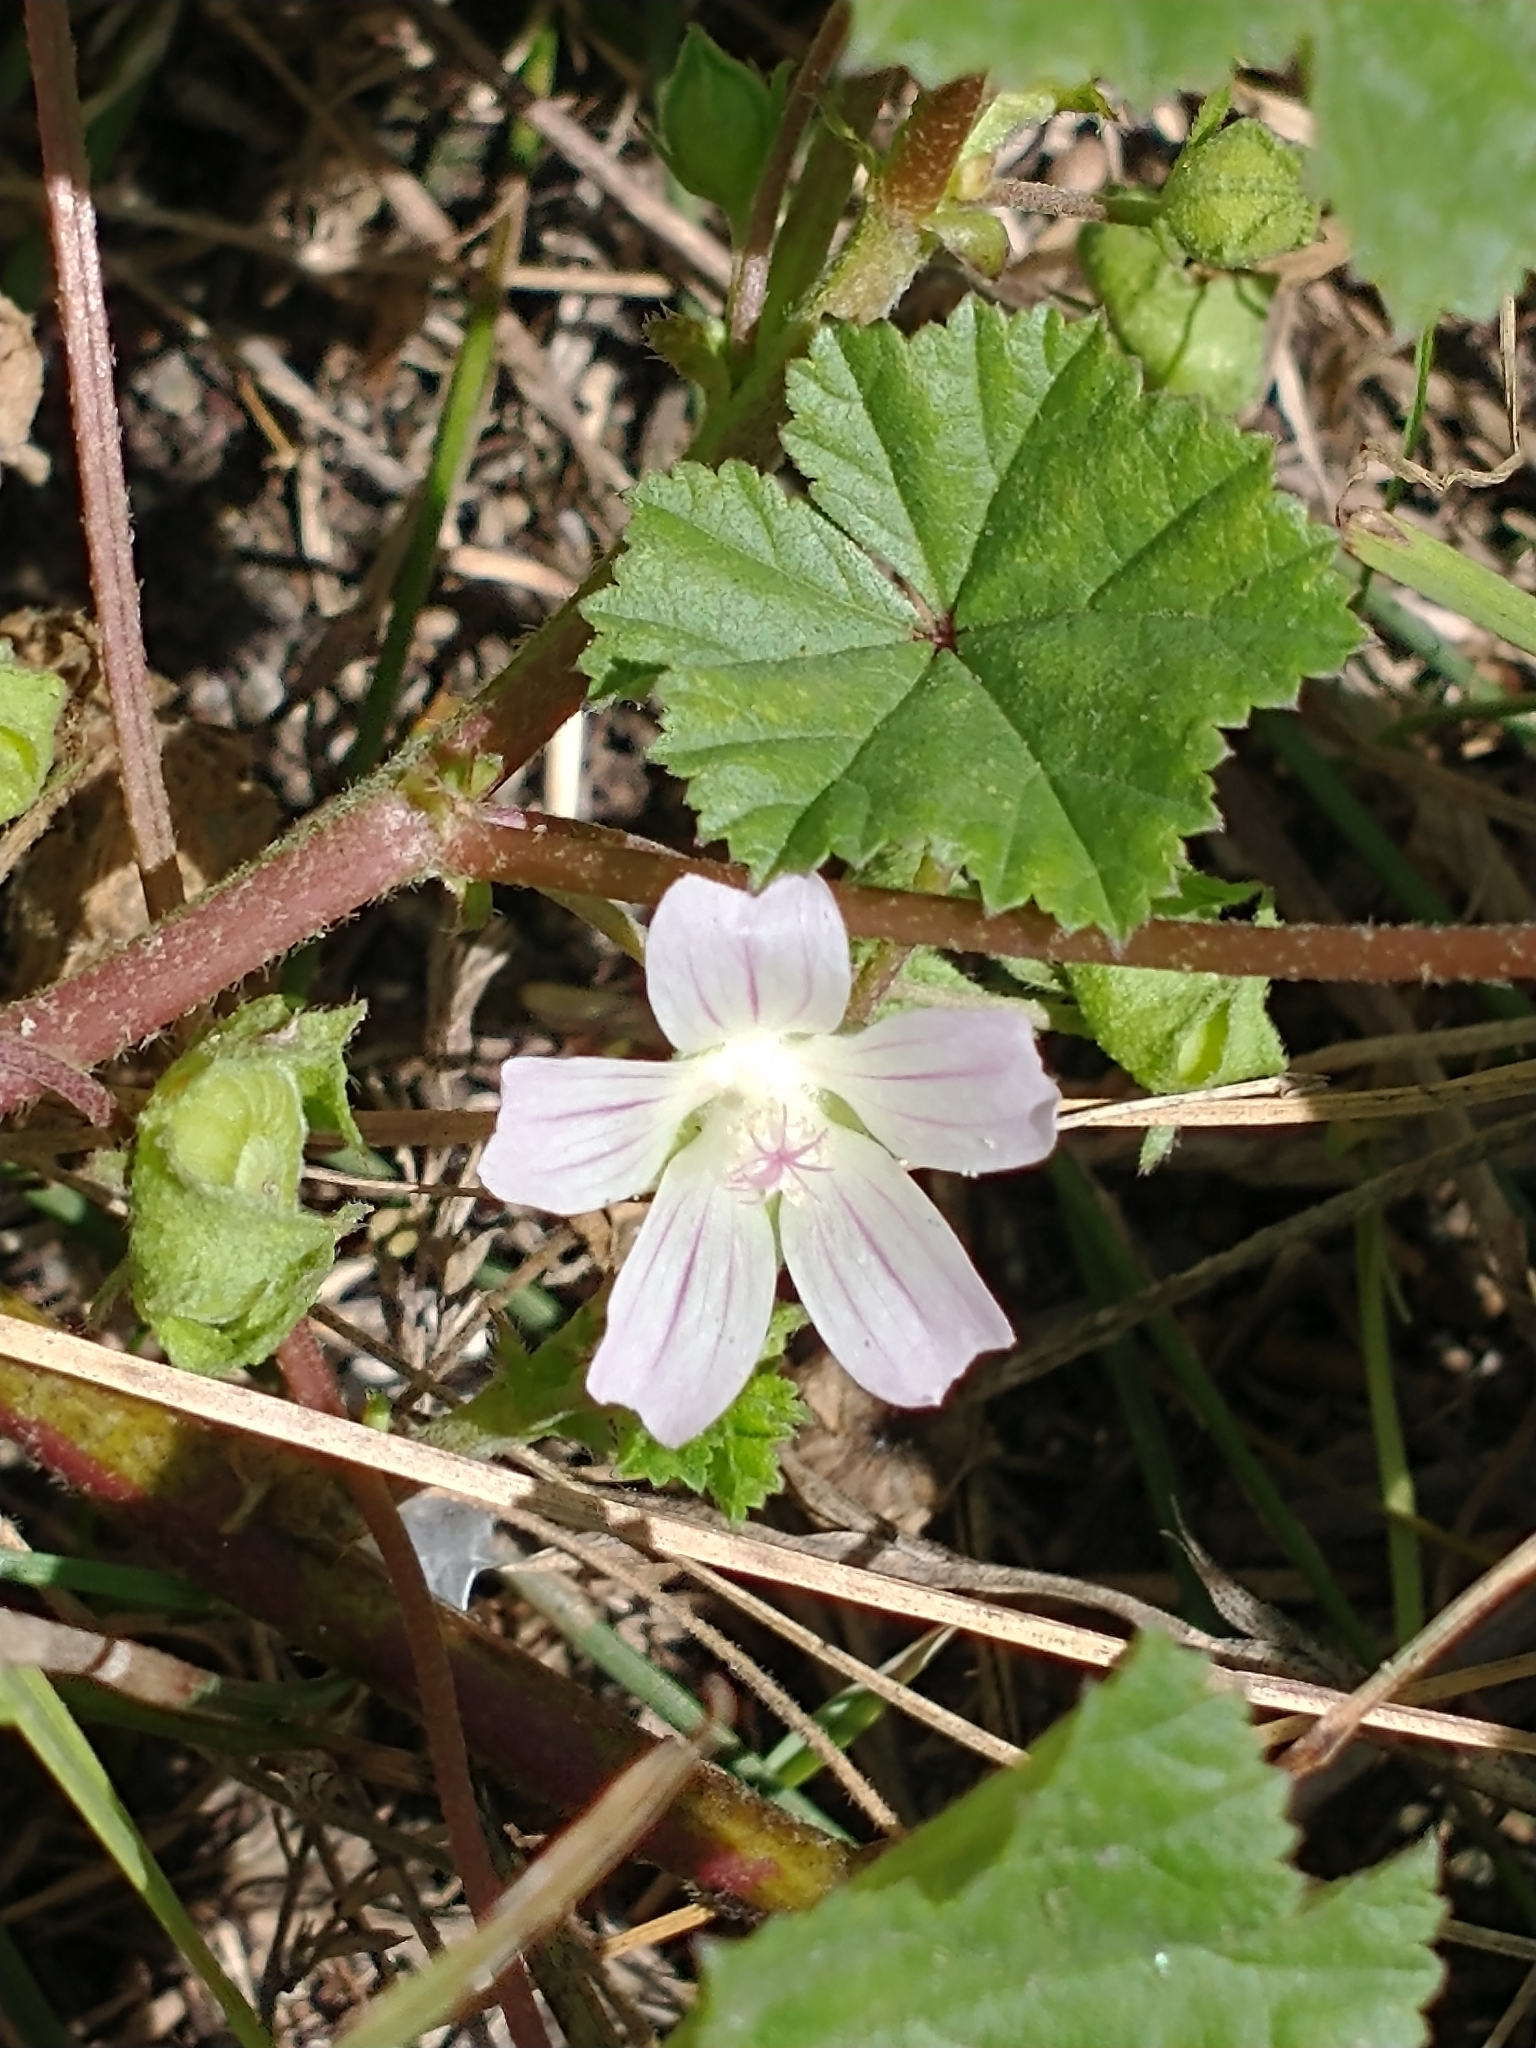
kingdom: Plantae
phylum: Tracheophyta
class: Magnoliopsida
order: Malvales
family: Malvaceae
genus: Malva
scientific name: Malva neglecta
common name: Common mallow
